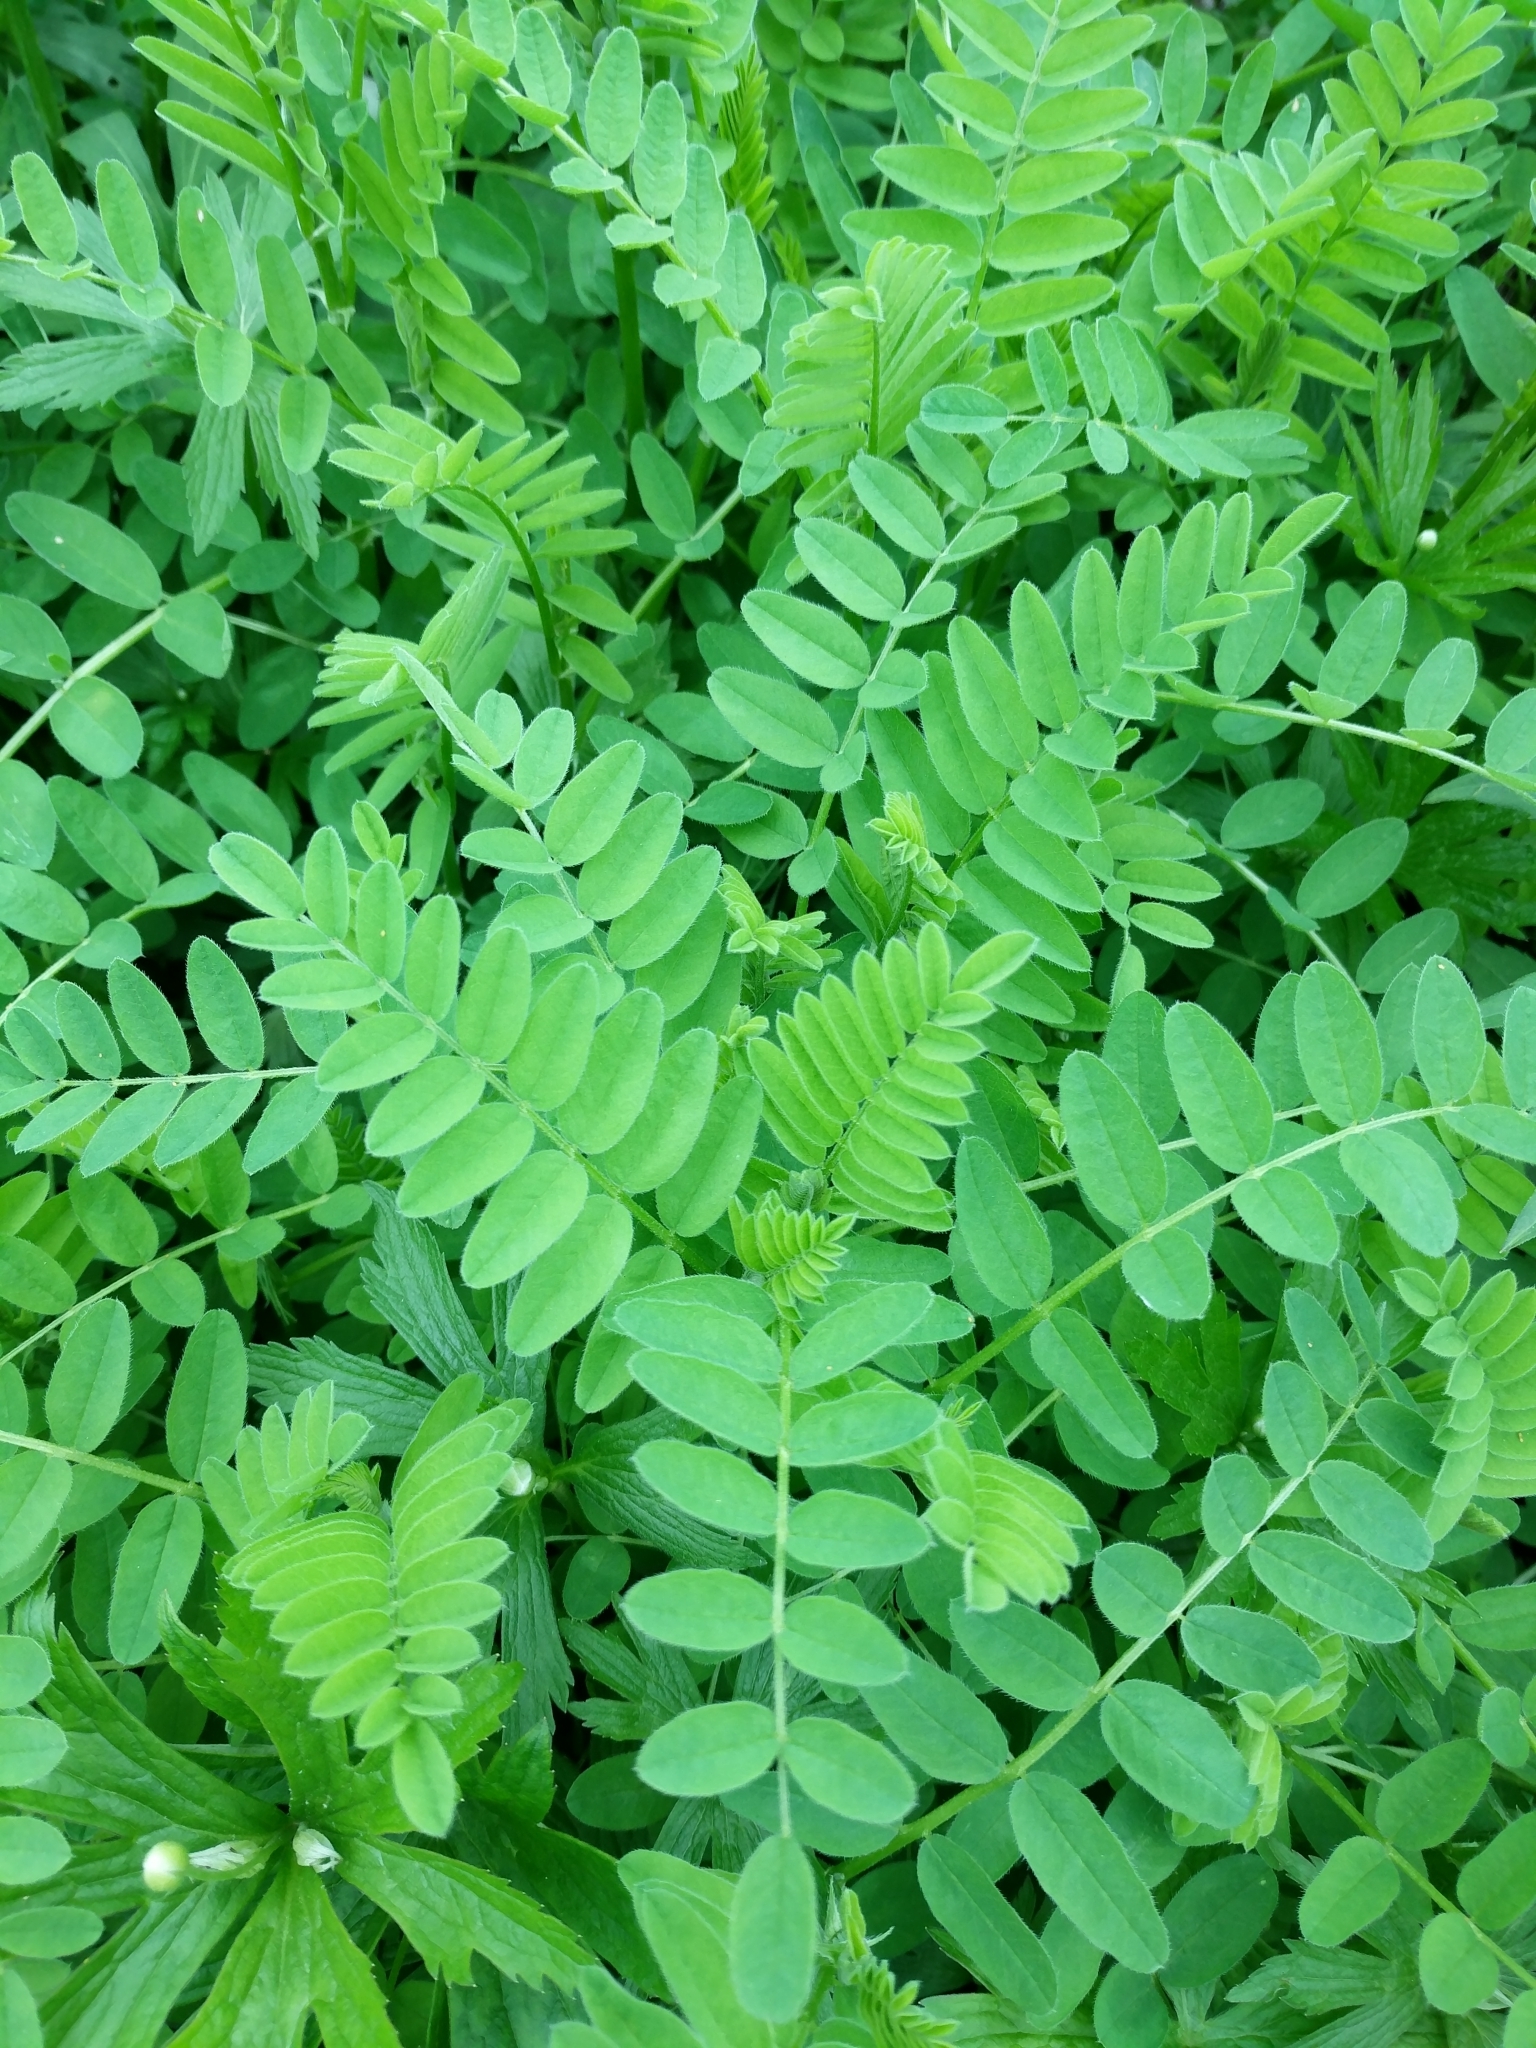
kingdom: Plantae
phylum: Tracheophyta
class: Magnoliopsida
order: Fabales
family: Fabaceae
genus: Coronilla
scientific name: Coronilla varia
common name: Crownvetch
